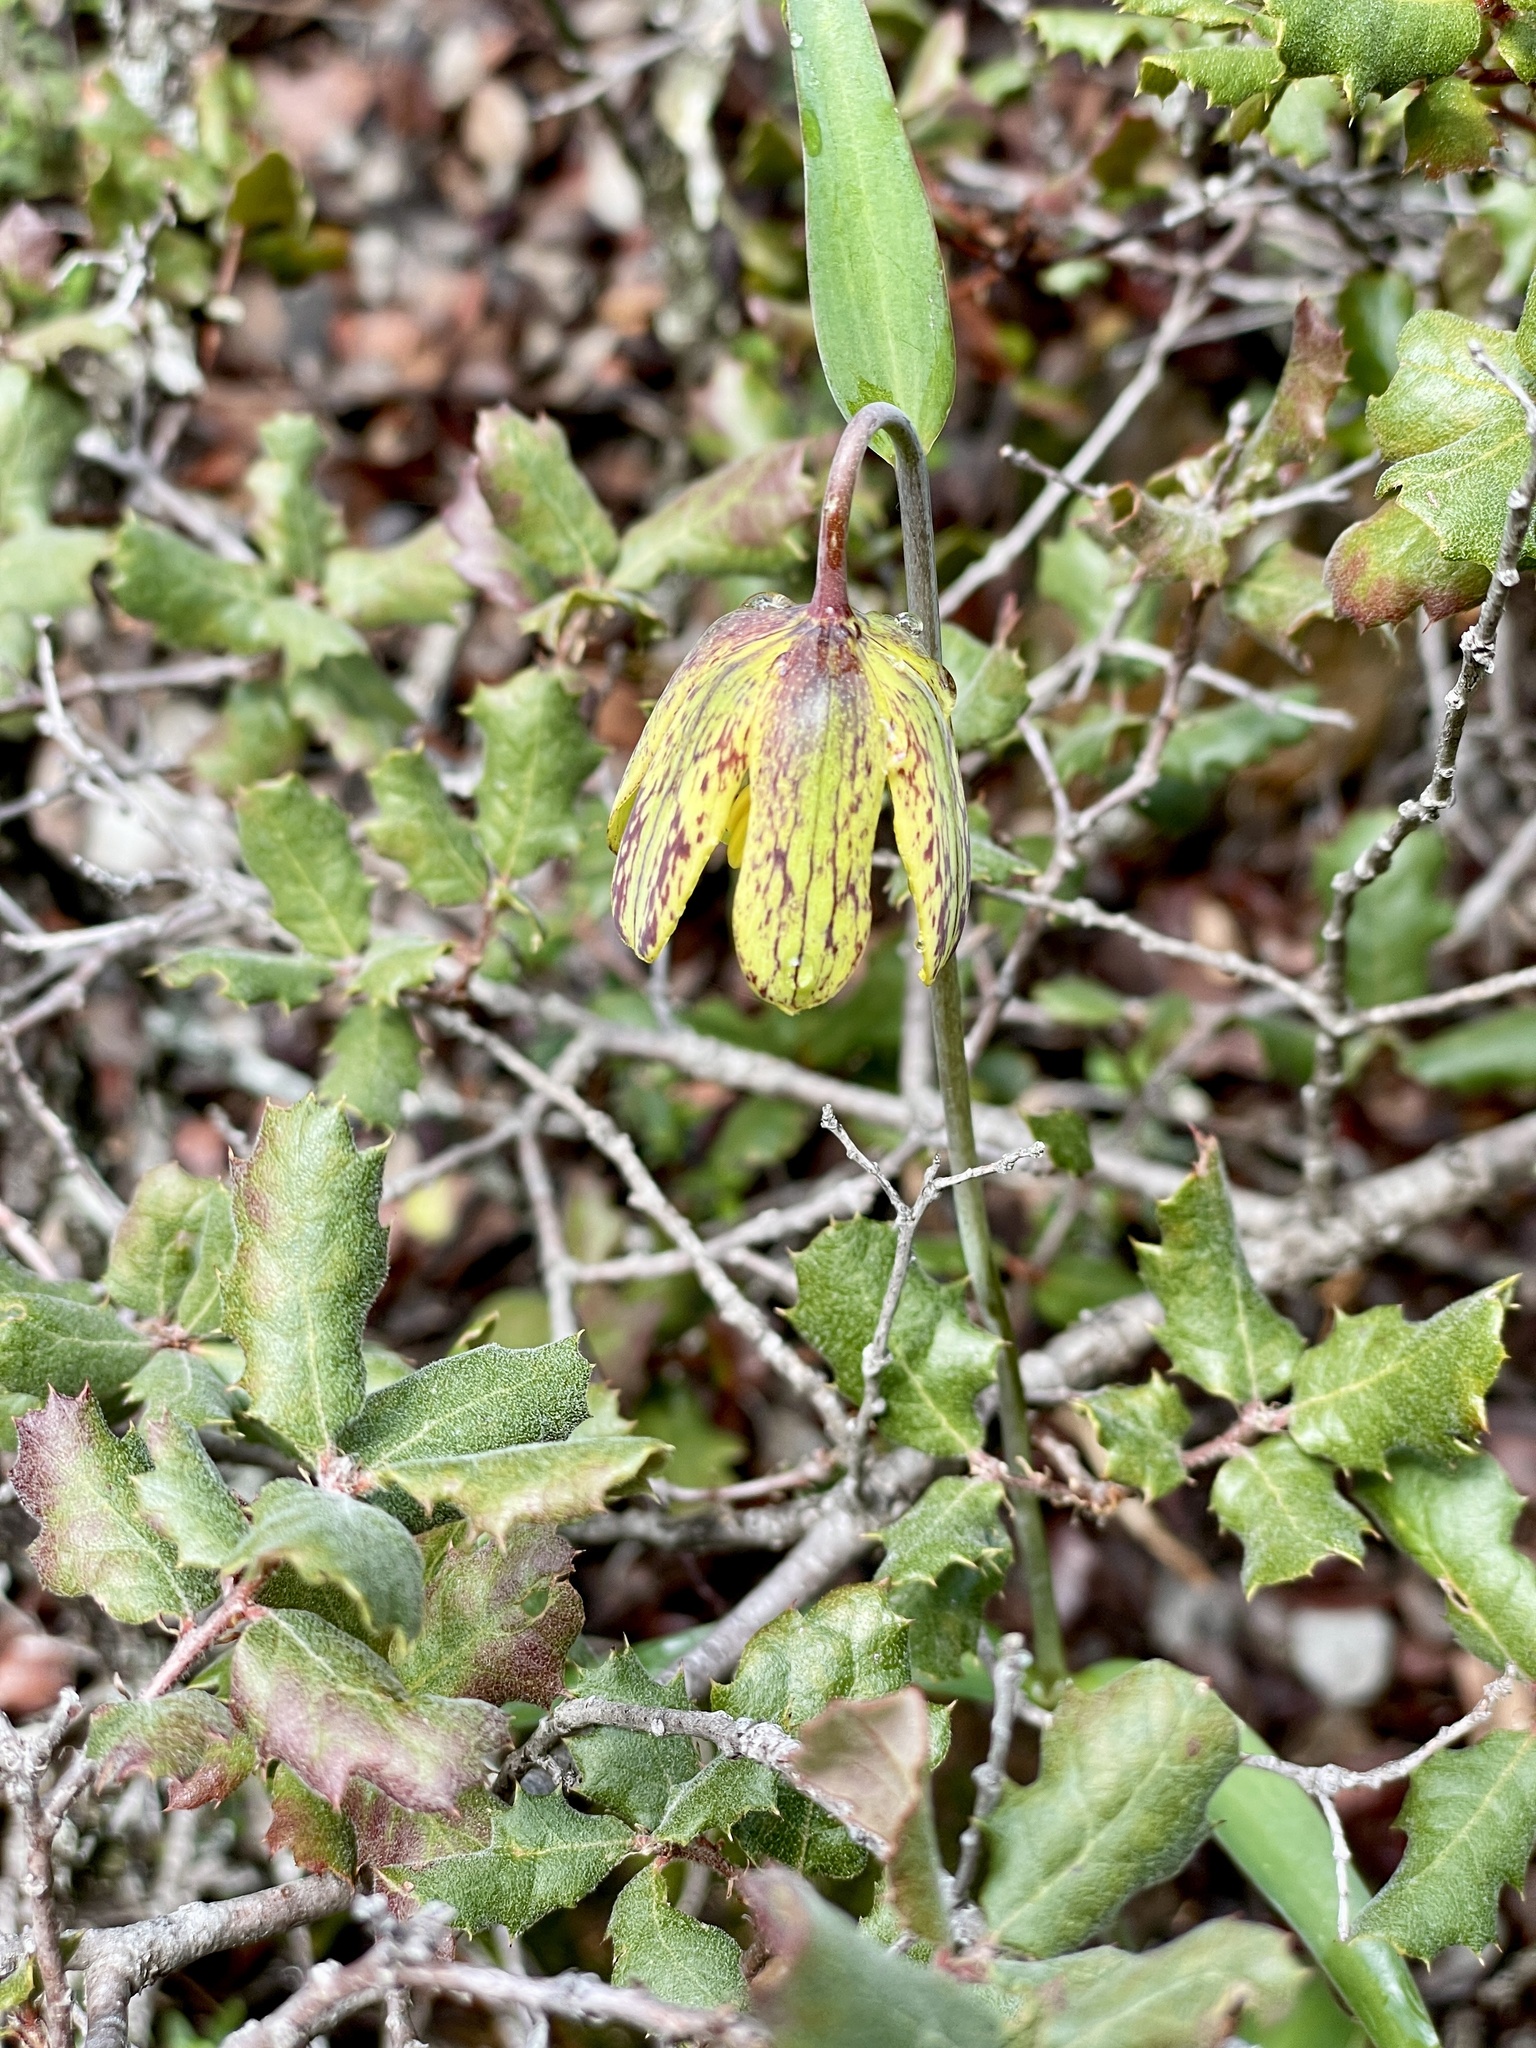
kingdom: Plantae
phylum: Tracheophyta
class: Liliopsida
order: Liliales
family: Liliaceae
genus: Fritillaria
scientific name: Fritillaria affinis
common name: Ojai fritillary
